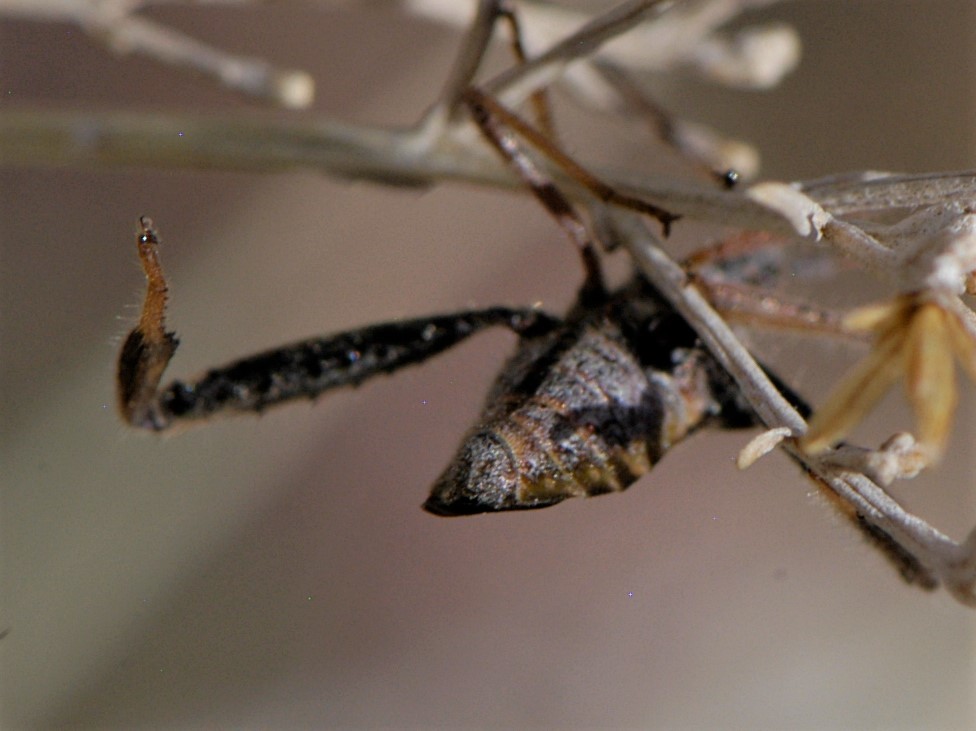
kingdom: Animalia
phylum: Arthropoda
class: Insecta
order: Hemiptera
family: Coreidae
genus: Narnia
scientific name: Narnia
